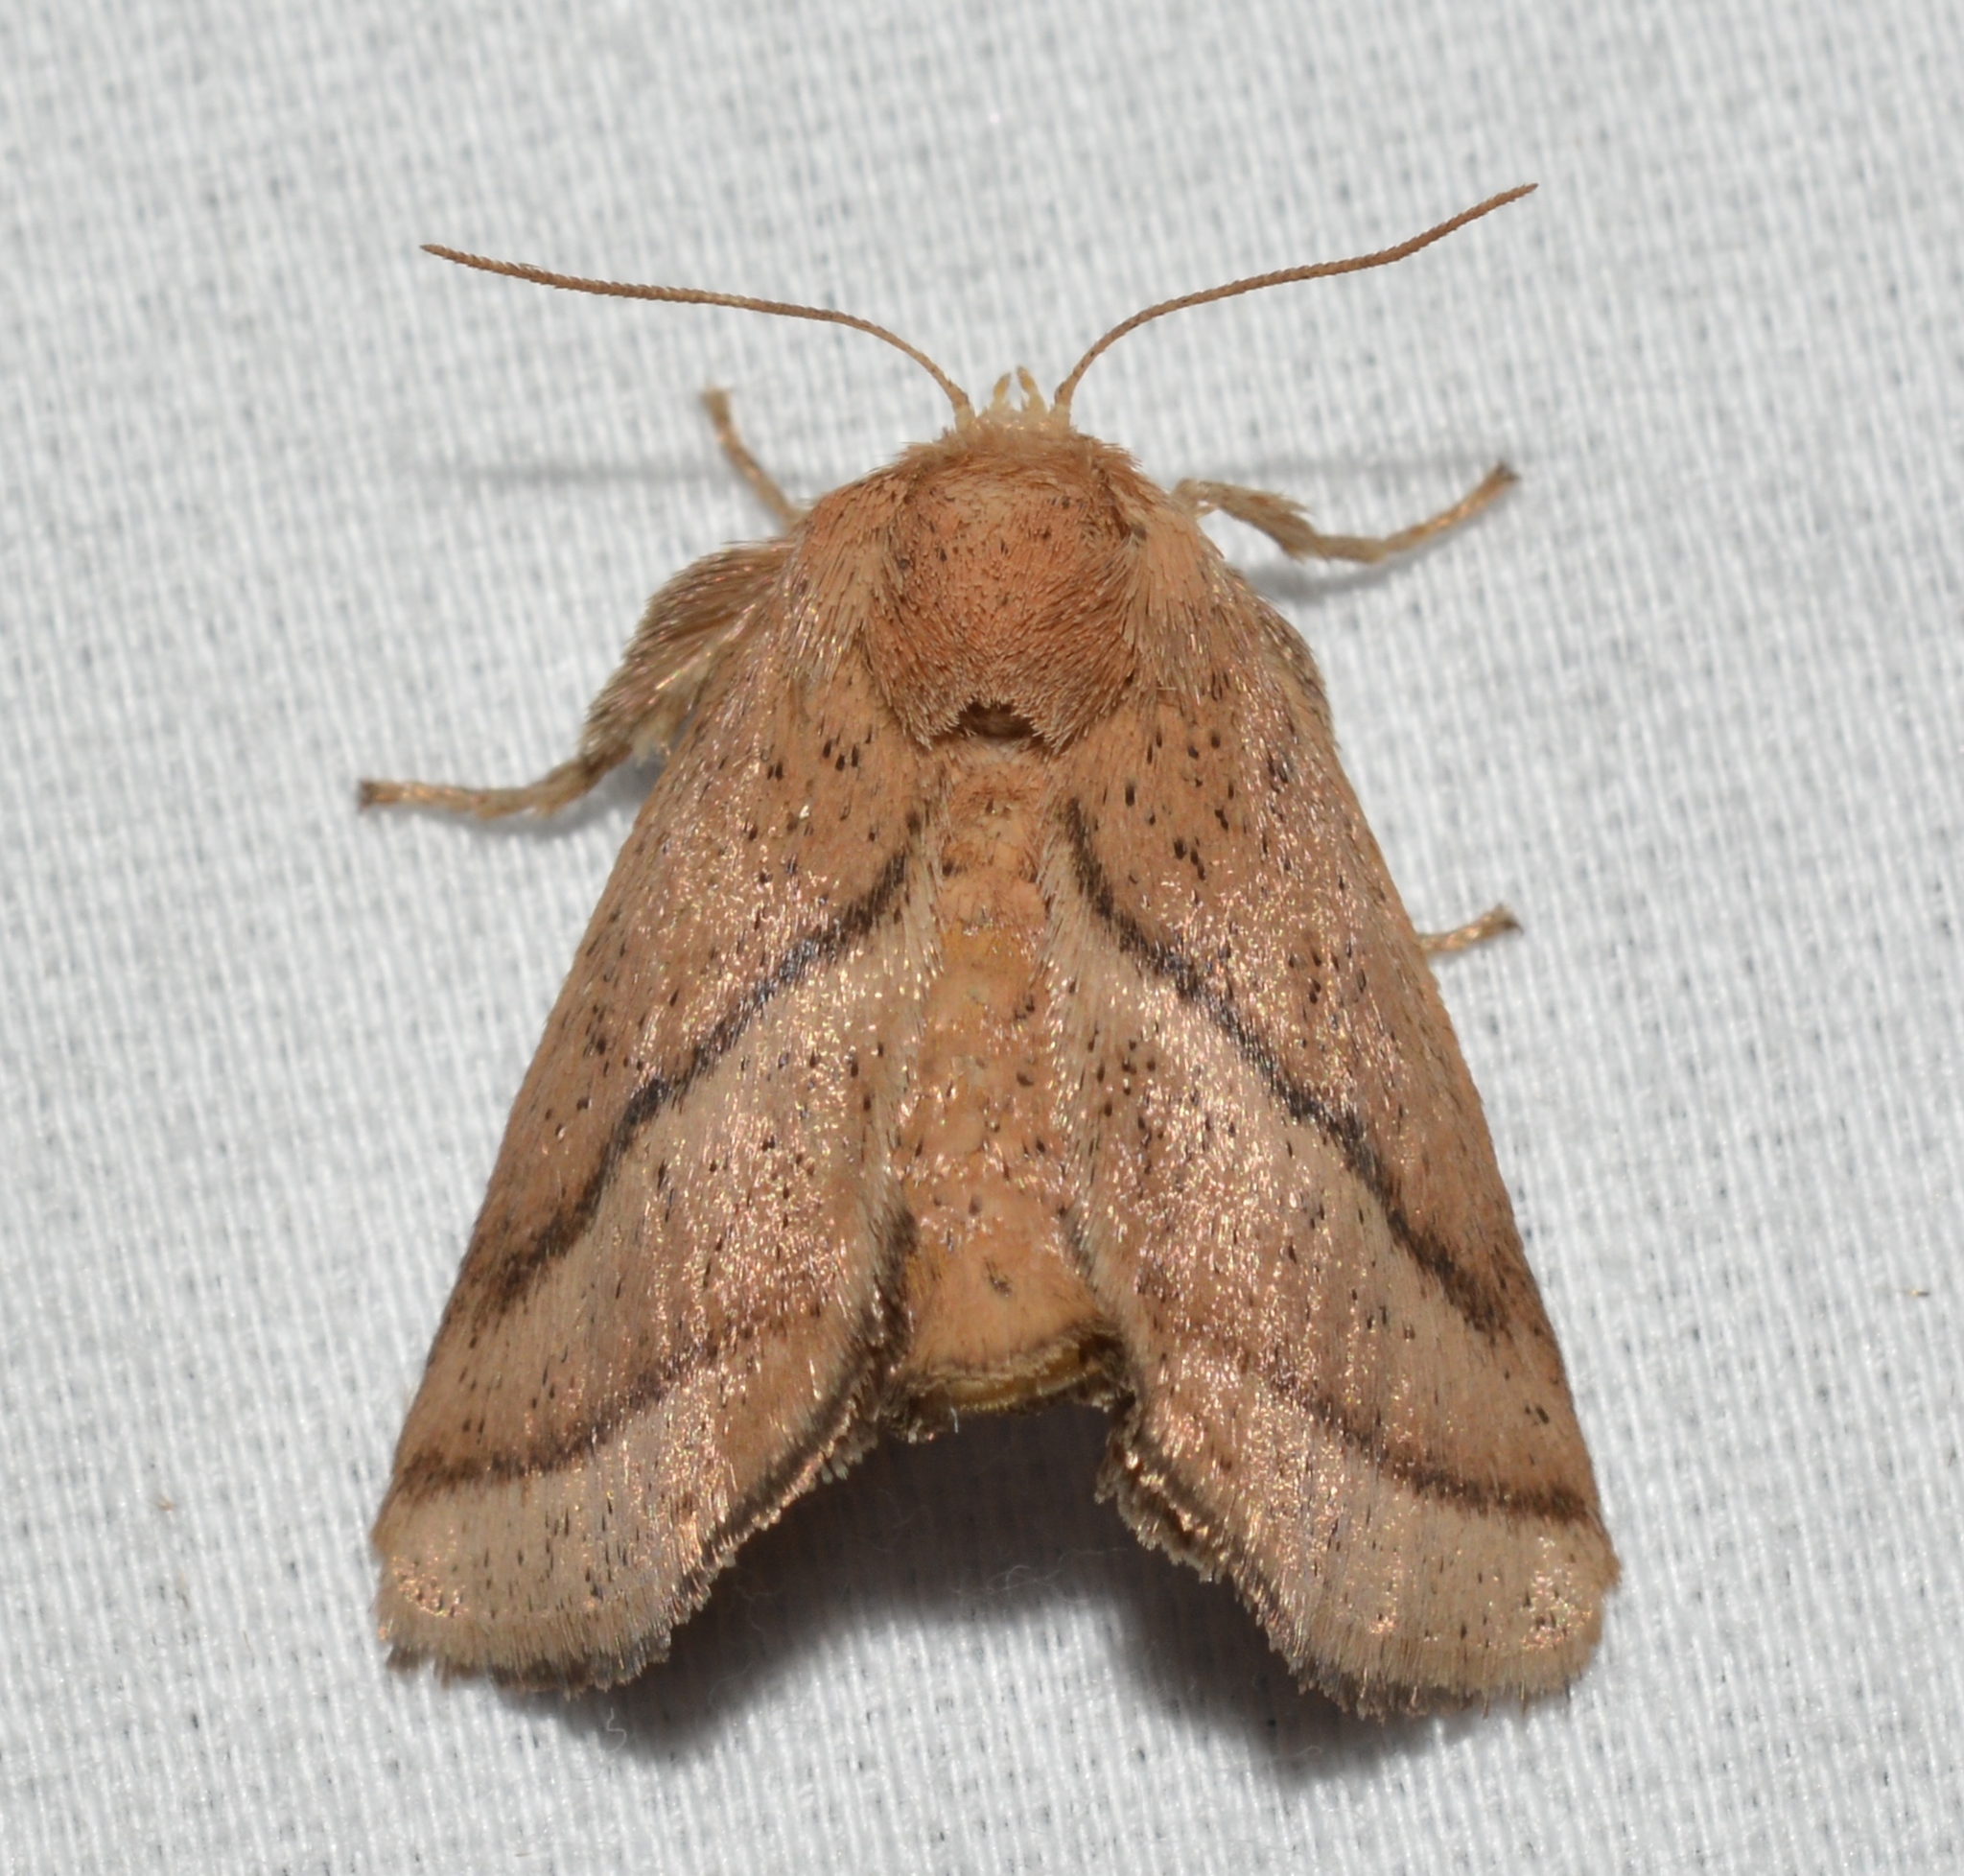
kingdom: Animalia
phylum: Arthropoda
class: Insecta
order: Lepidoptera
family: Limacodidae
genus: Natada
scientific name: Natada nasoni
